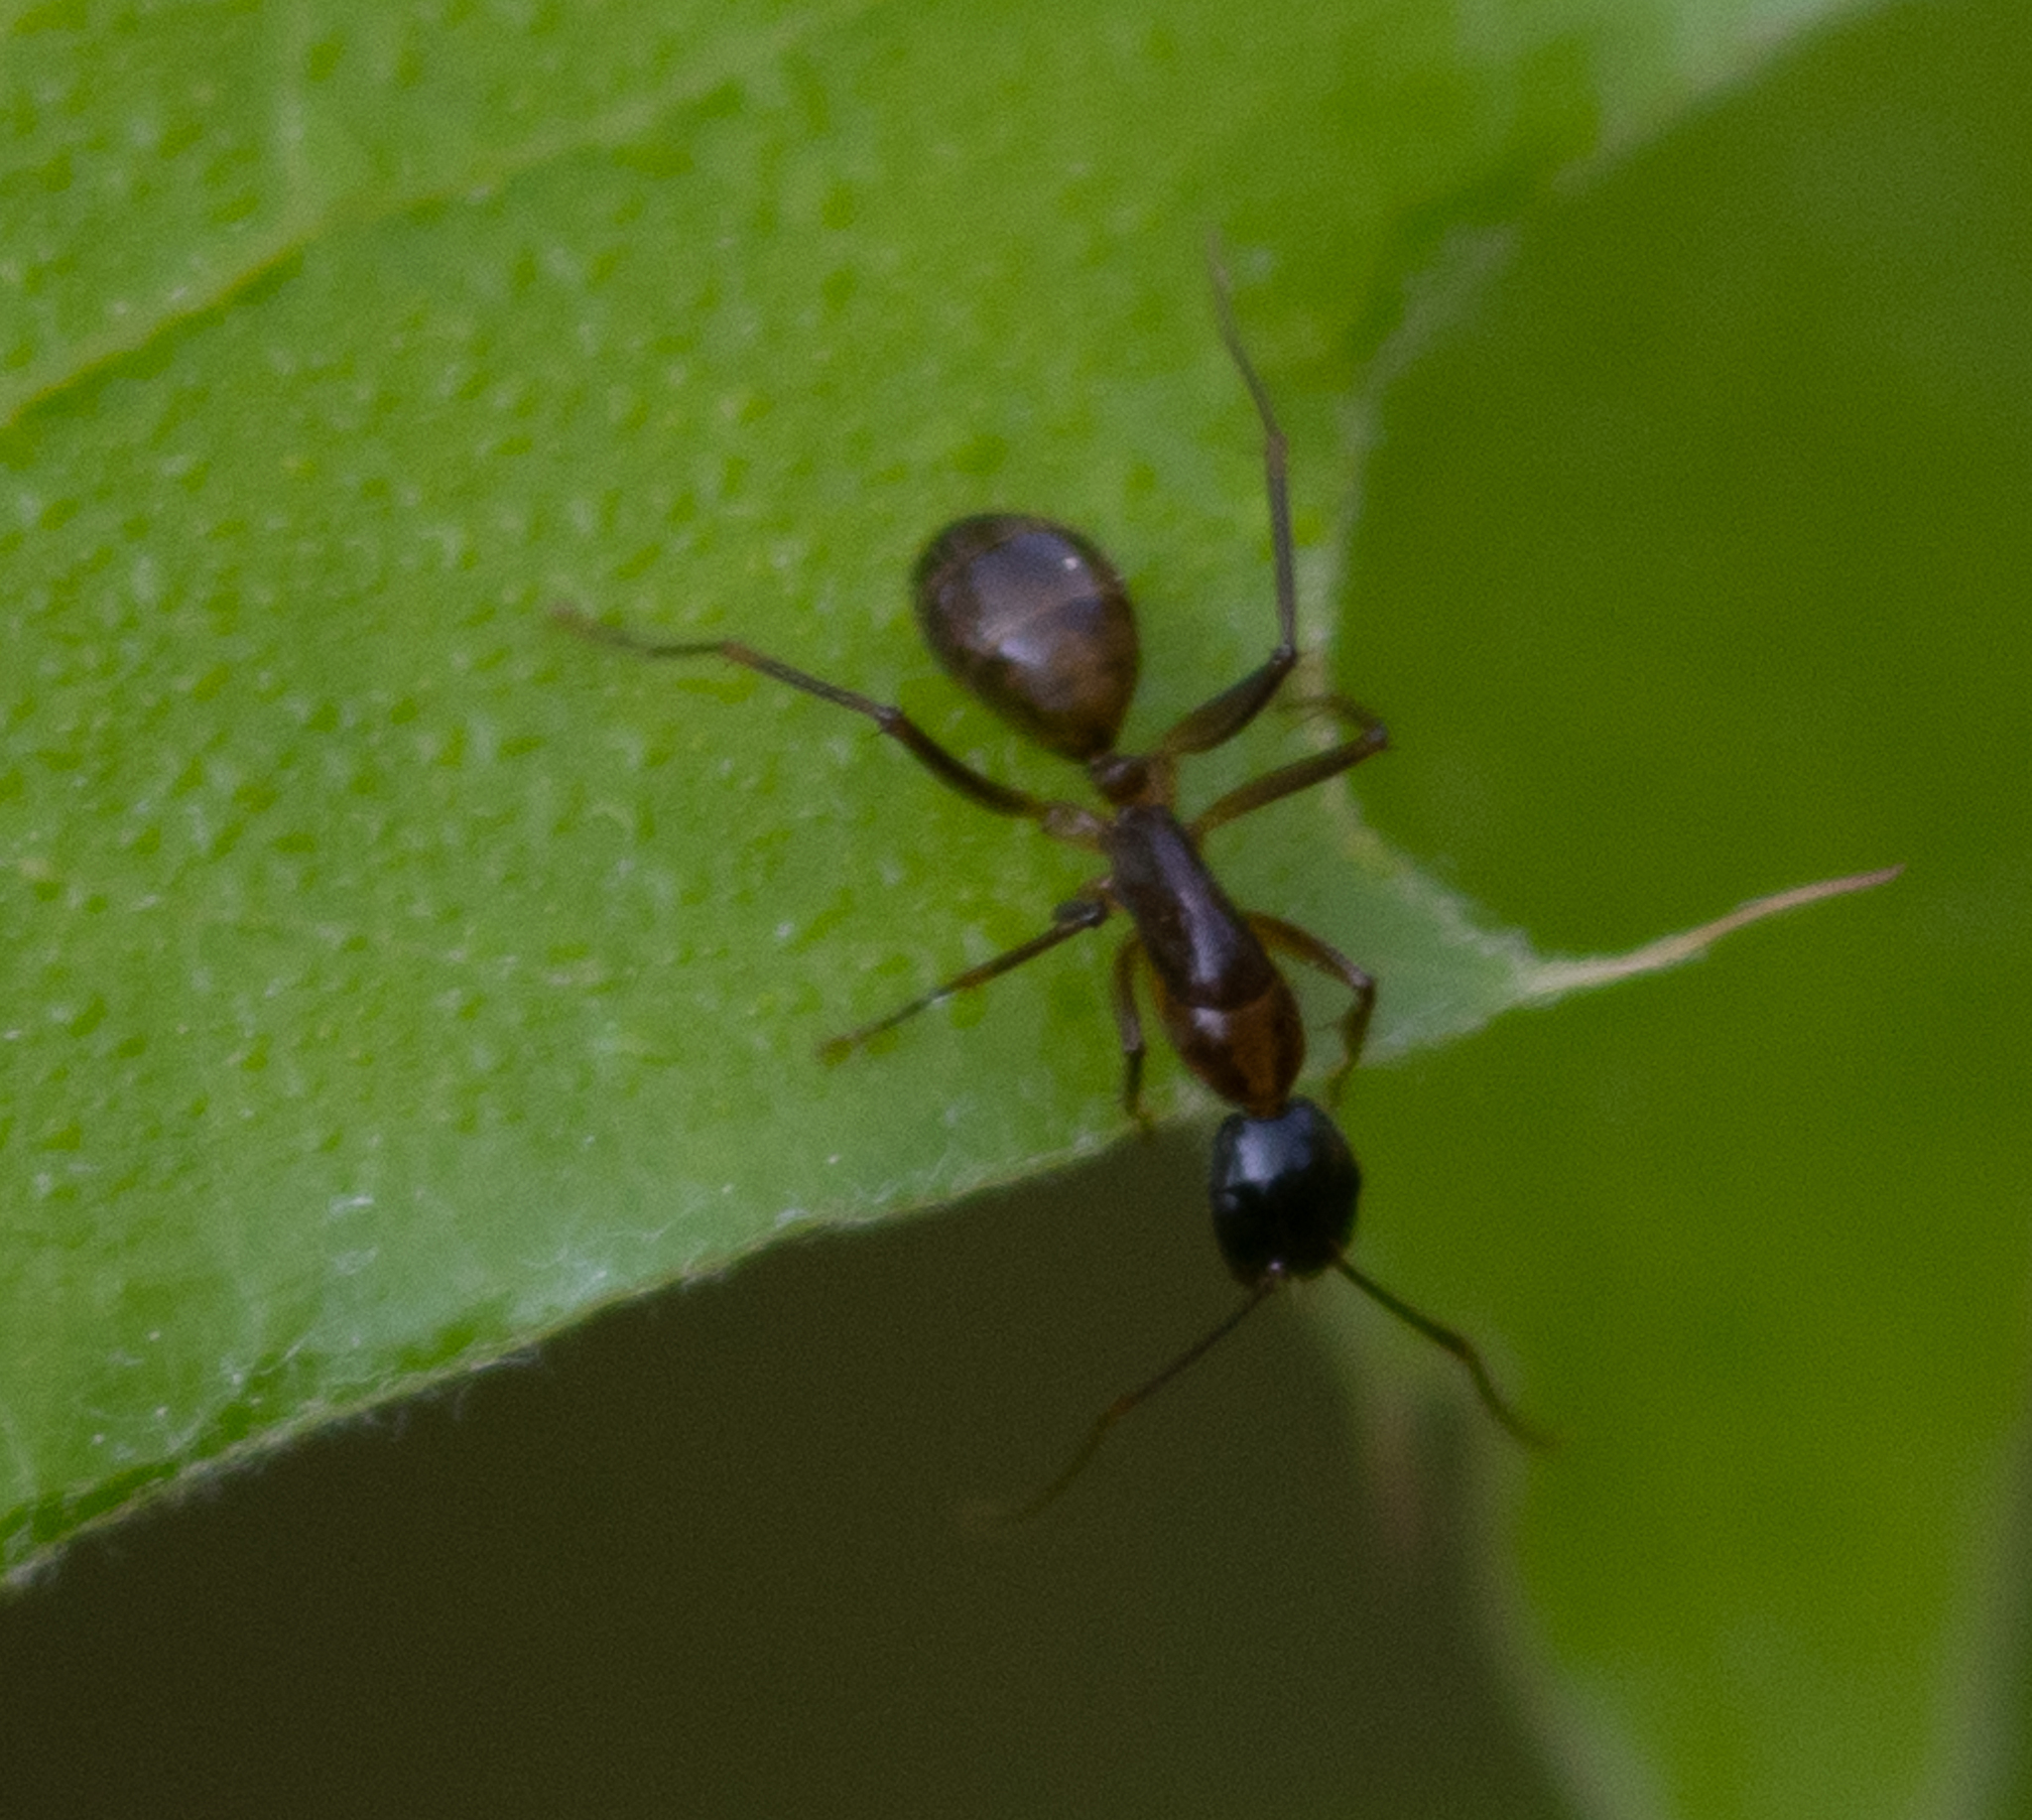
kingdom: Animalia
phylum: Arthropoda
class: Insecta
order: Hymenoptera
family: Formicidae
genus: Camponotus
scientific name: Camponotus americanus
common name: American carpenter ant
